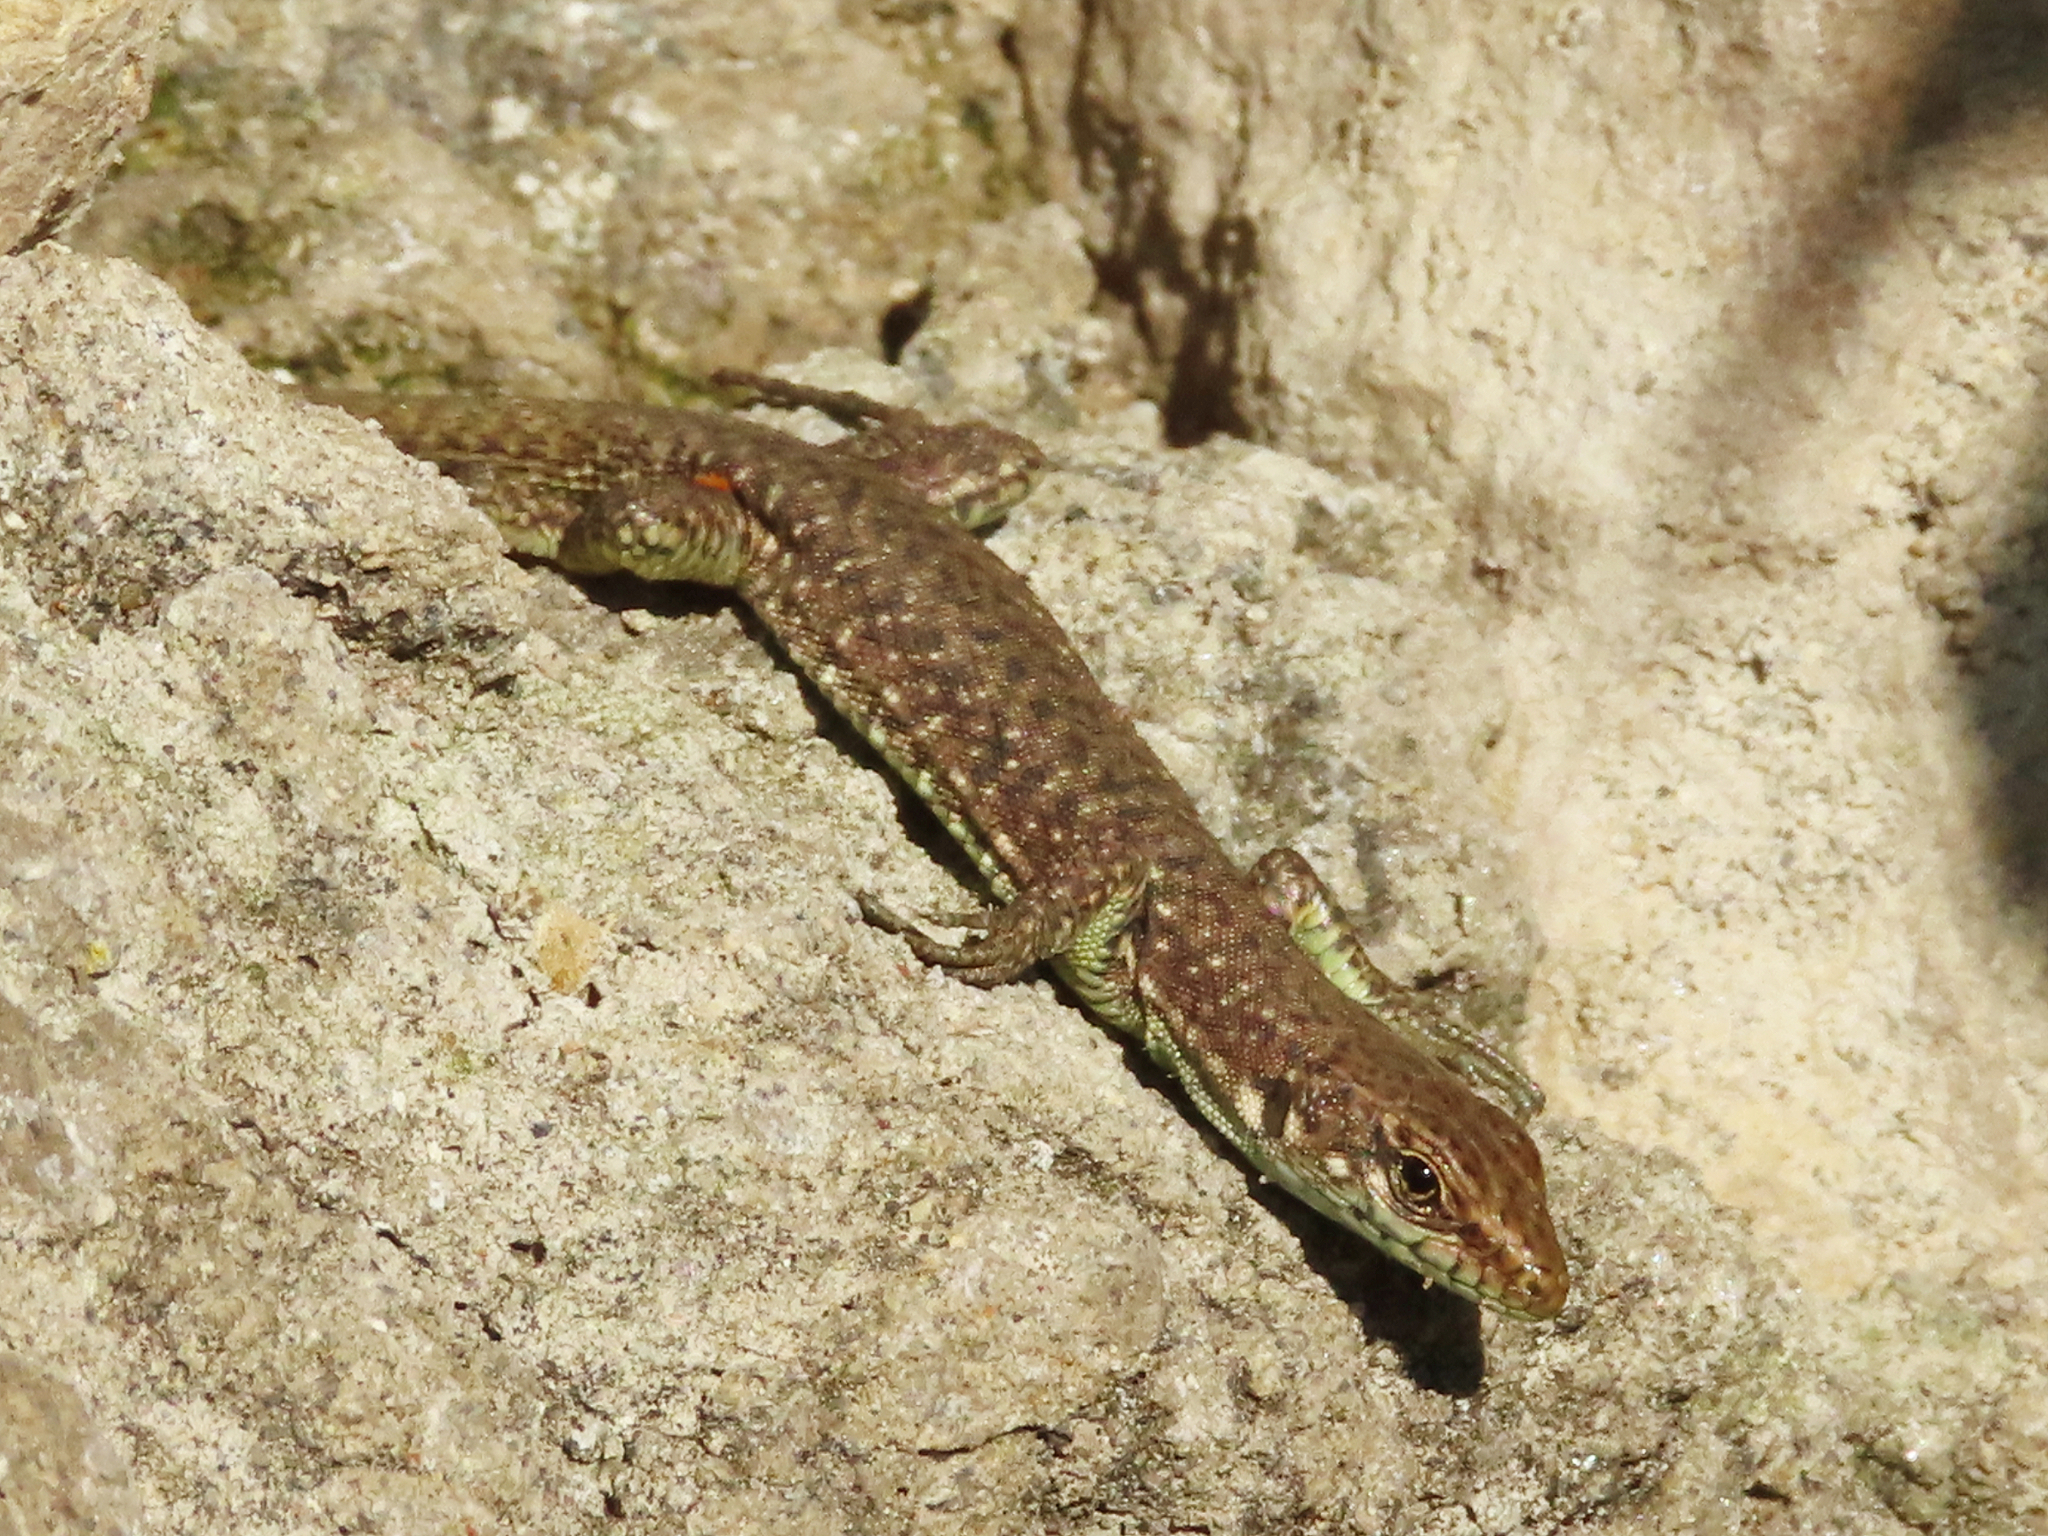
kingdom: Animalia
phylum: Chordata
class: Squamata
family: Lacertidae
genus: Darevskia
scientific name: Darevskia rudis
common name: Spiny-tailed lizard
